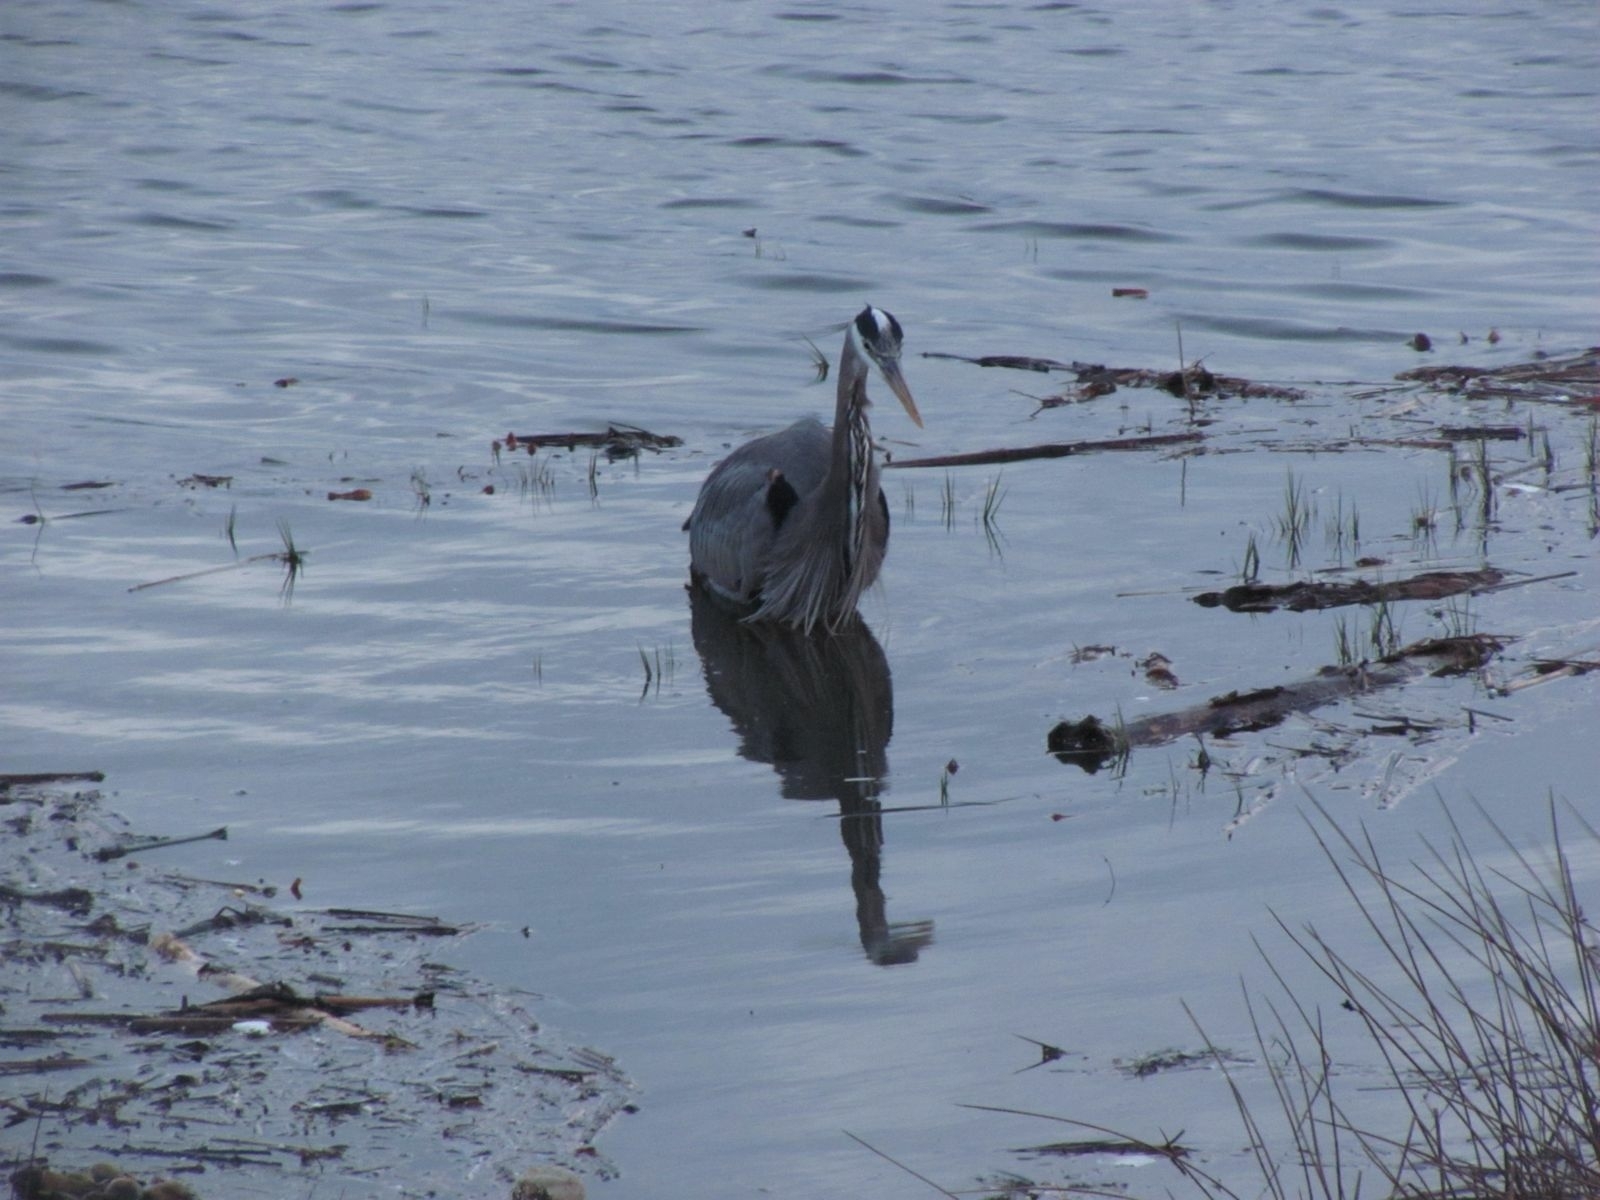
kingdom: Animalia
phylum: Chordata
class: Aves
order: Pelecaniformes
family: Ardeidae
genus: Ardea
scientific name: Ardea herodias
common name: Great blue heron
